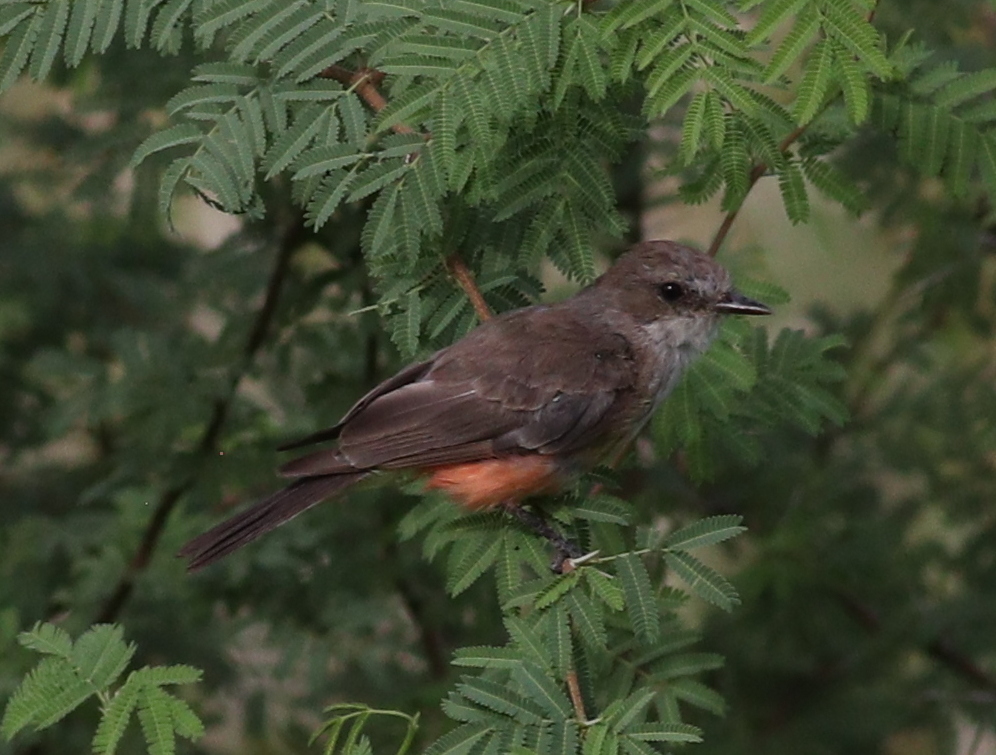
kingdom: Animalia
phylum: Chordata
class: Aves
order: Passeriformes
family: Tyrannidae
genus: Pyrocephalus
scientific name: Pyrocephalus rubinus
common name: Vermilion flycatcher
